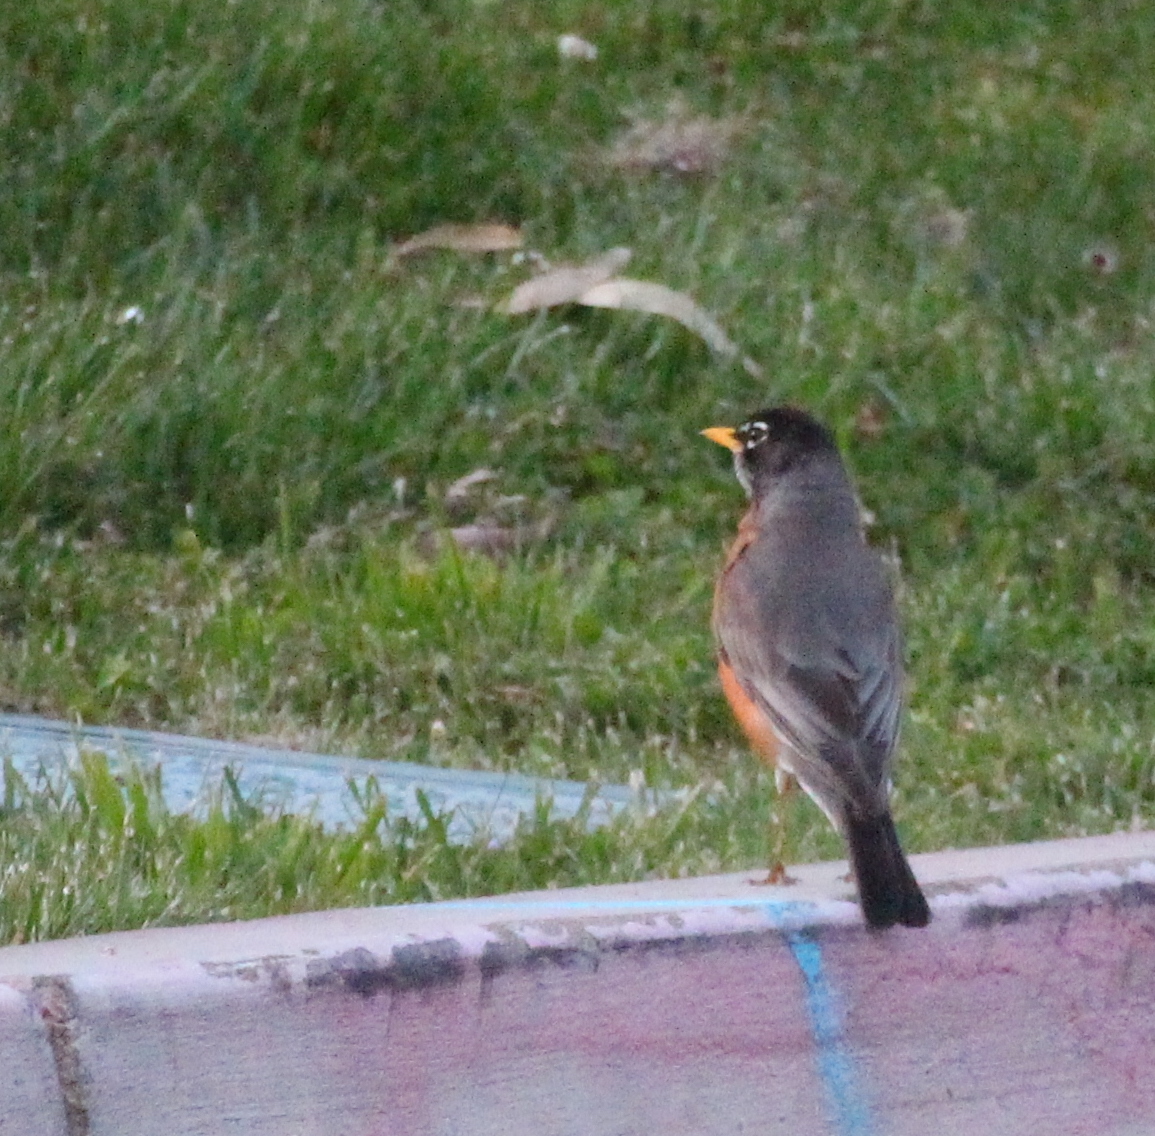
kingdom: Animalia
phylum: Chordata
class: Aves
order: Passeriformes
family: Turdidae
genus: Turdus
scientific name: Turdus migratorius
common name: American robin
